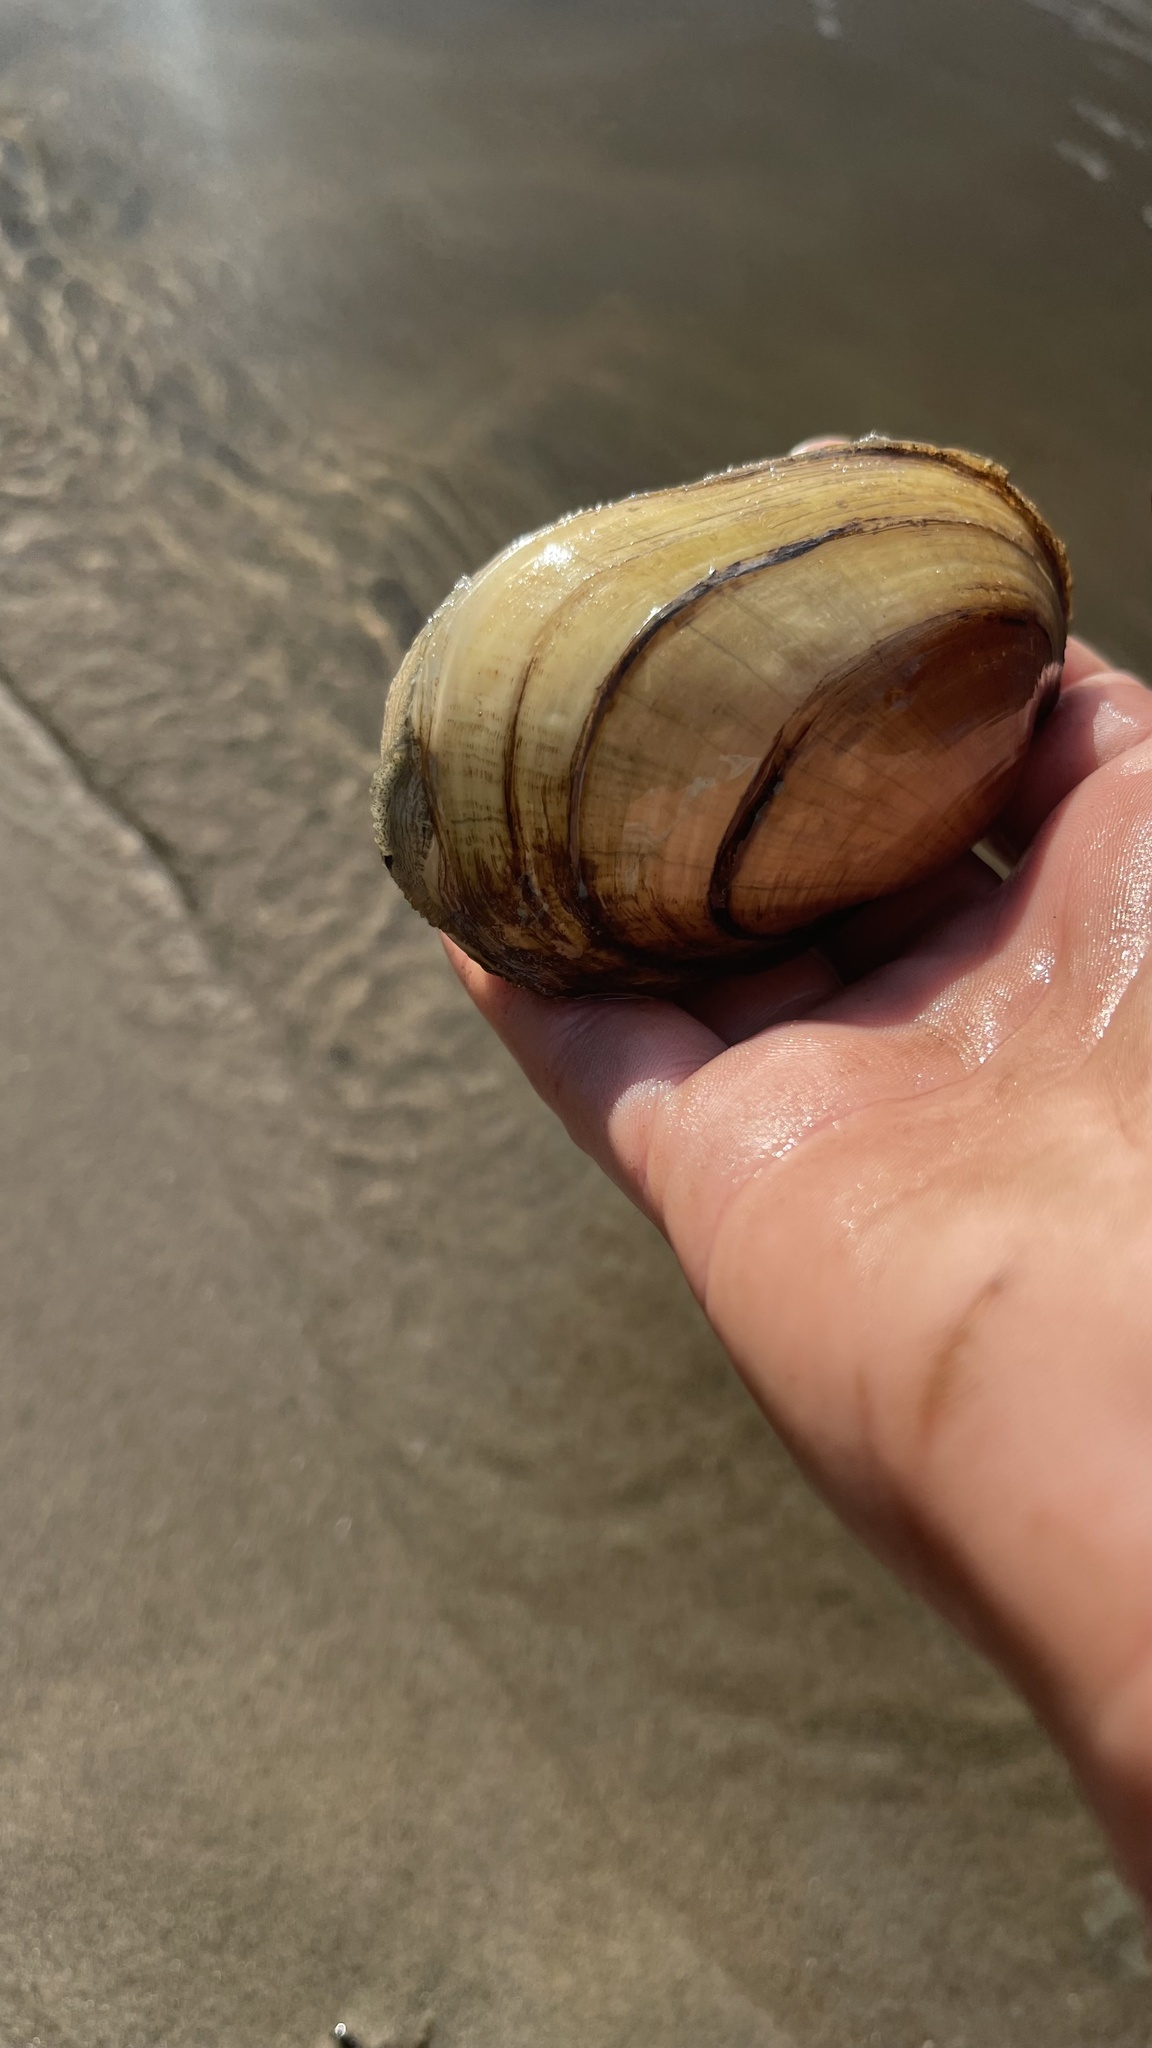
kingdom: Animalia
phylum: Mollusca
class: Bivalvia
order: Unionida
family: Unionidae
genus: Lampsilis
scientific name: Lampsilis siliquoidea
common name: Fatmucket
